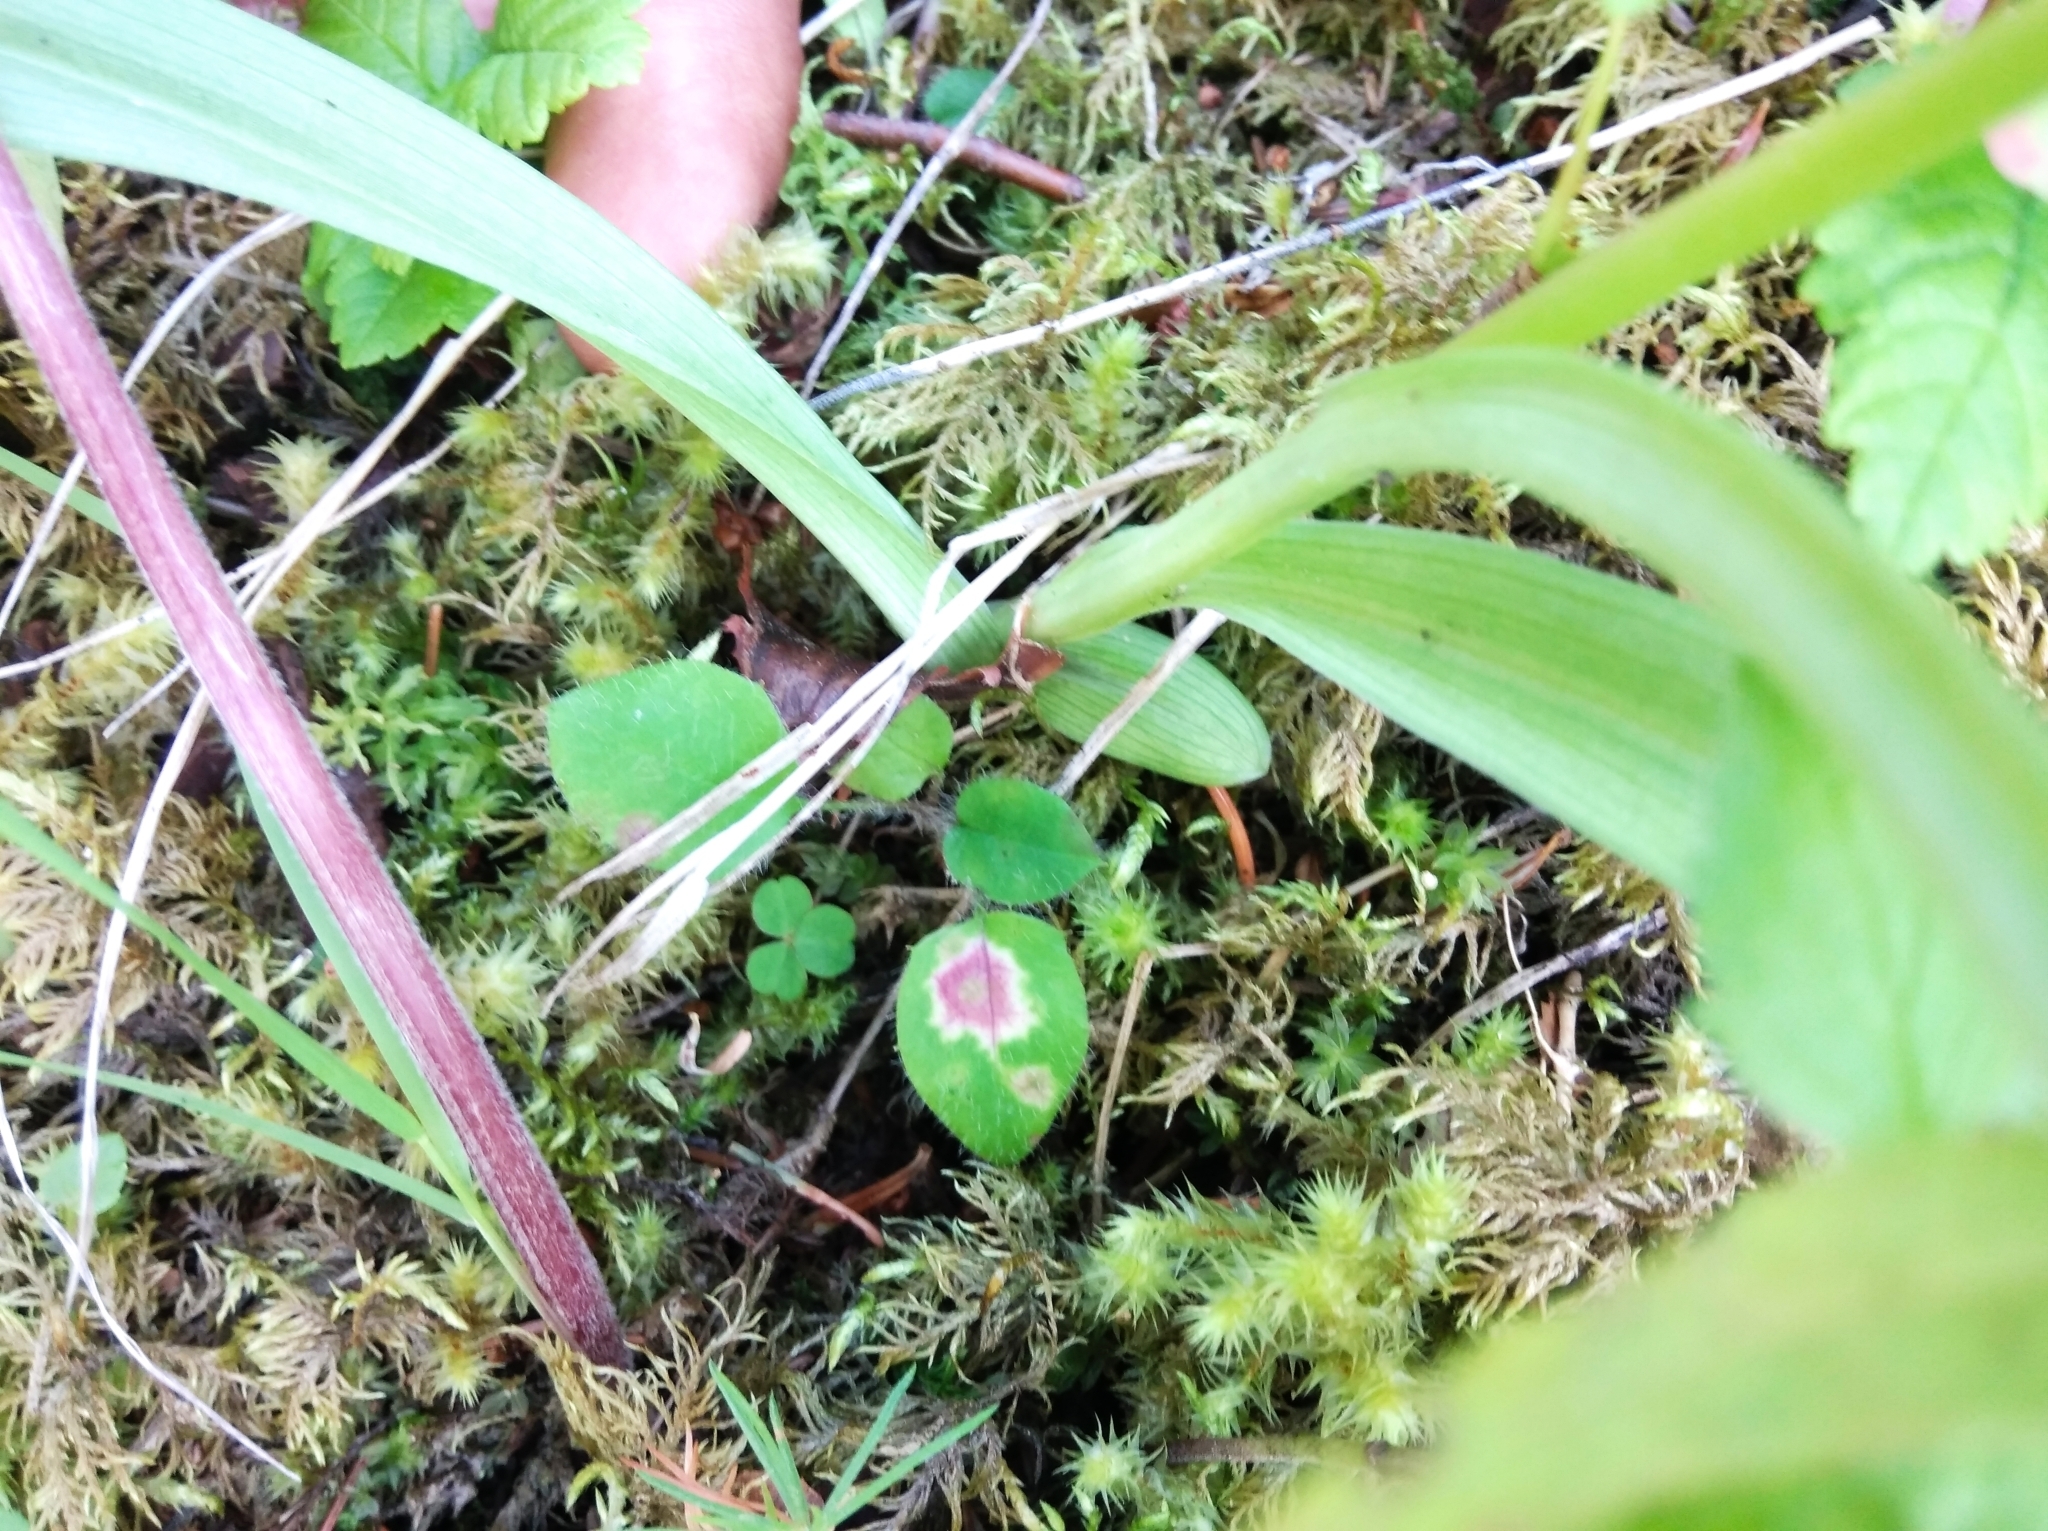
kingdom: Plantae
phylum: Tracheophyta
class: Liliopsida
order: Asparagales
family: Orchidaceae
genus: Gymnadenia
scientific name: Gymnadenia conopsea
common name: Fragrant orchid
